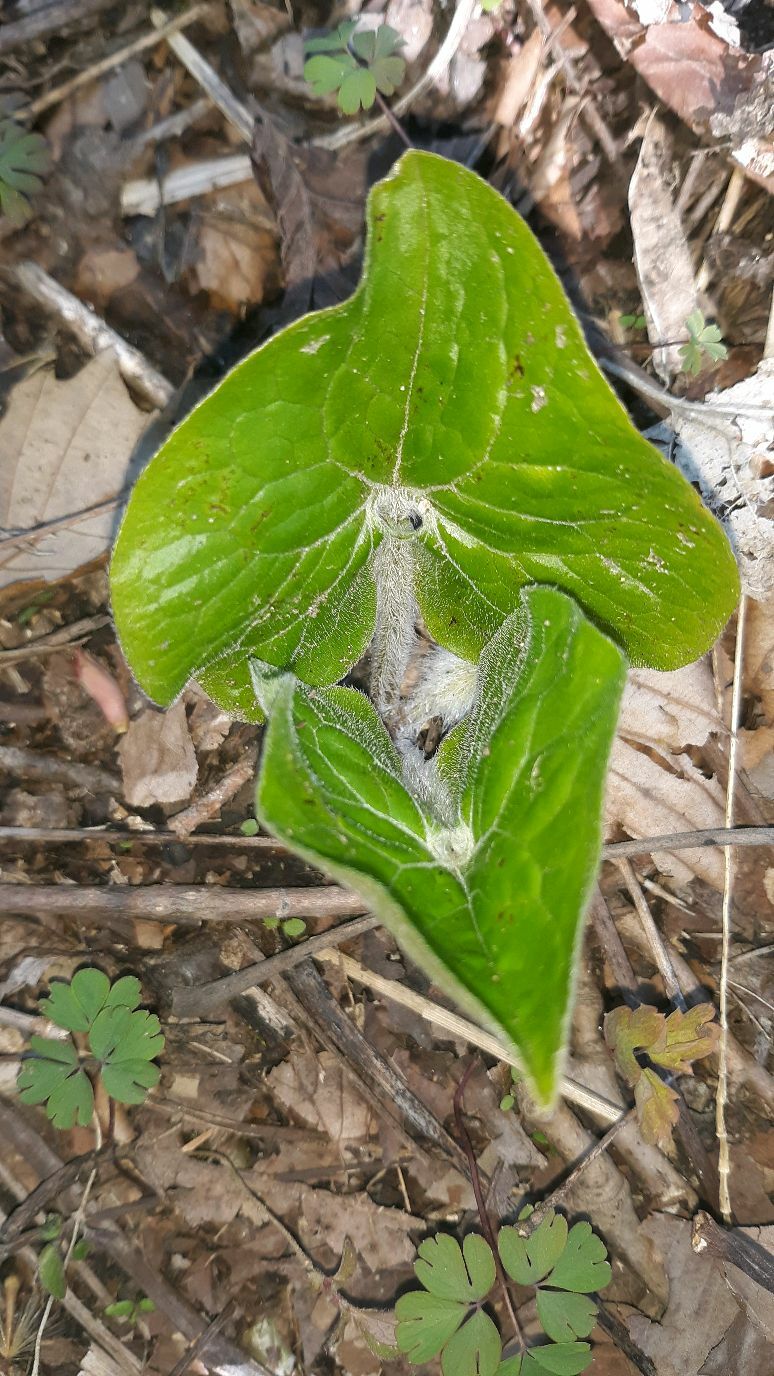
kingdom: Plantae
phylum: Tracheophyta
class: Magnoliopsida
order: Piperales
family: Aristolochiaceae
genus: Asarum
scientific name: Asarum canadense
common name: Wild ginger
